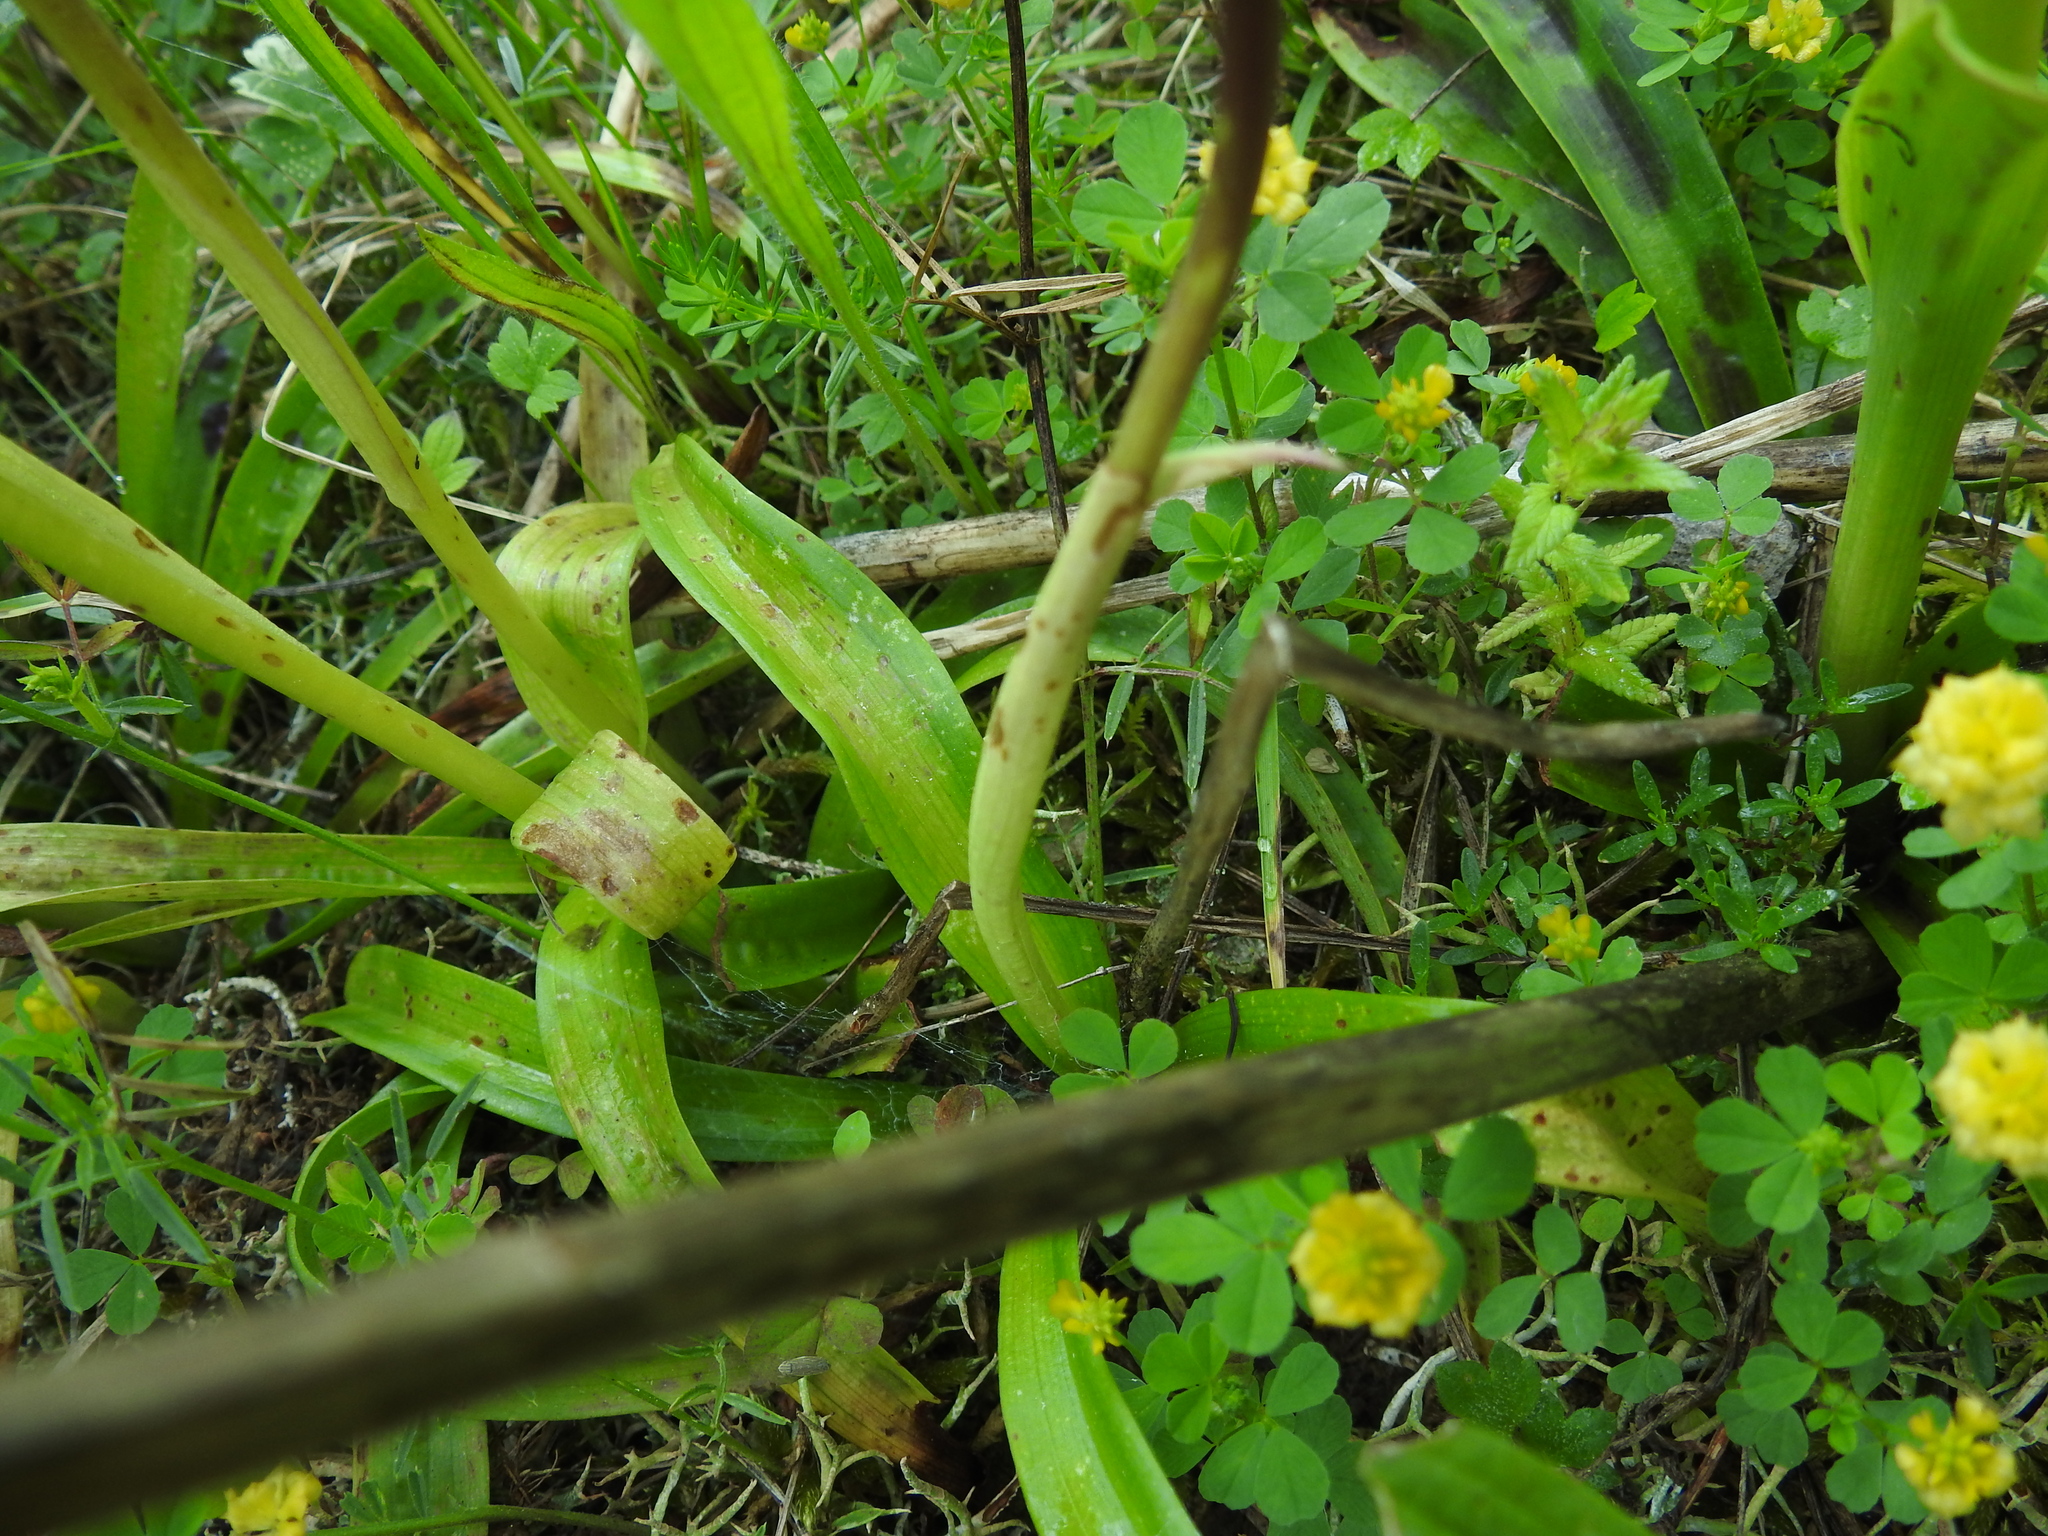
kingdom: Plantae
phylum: Tracheophyta
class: Liliopsida
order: Asparagales
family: Orchidaceae
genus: Orchis
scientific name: Orchis mascula
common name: Early-purple orchid
